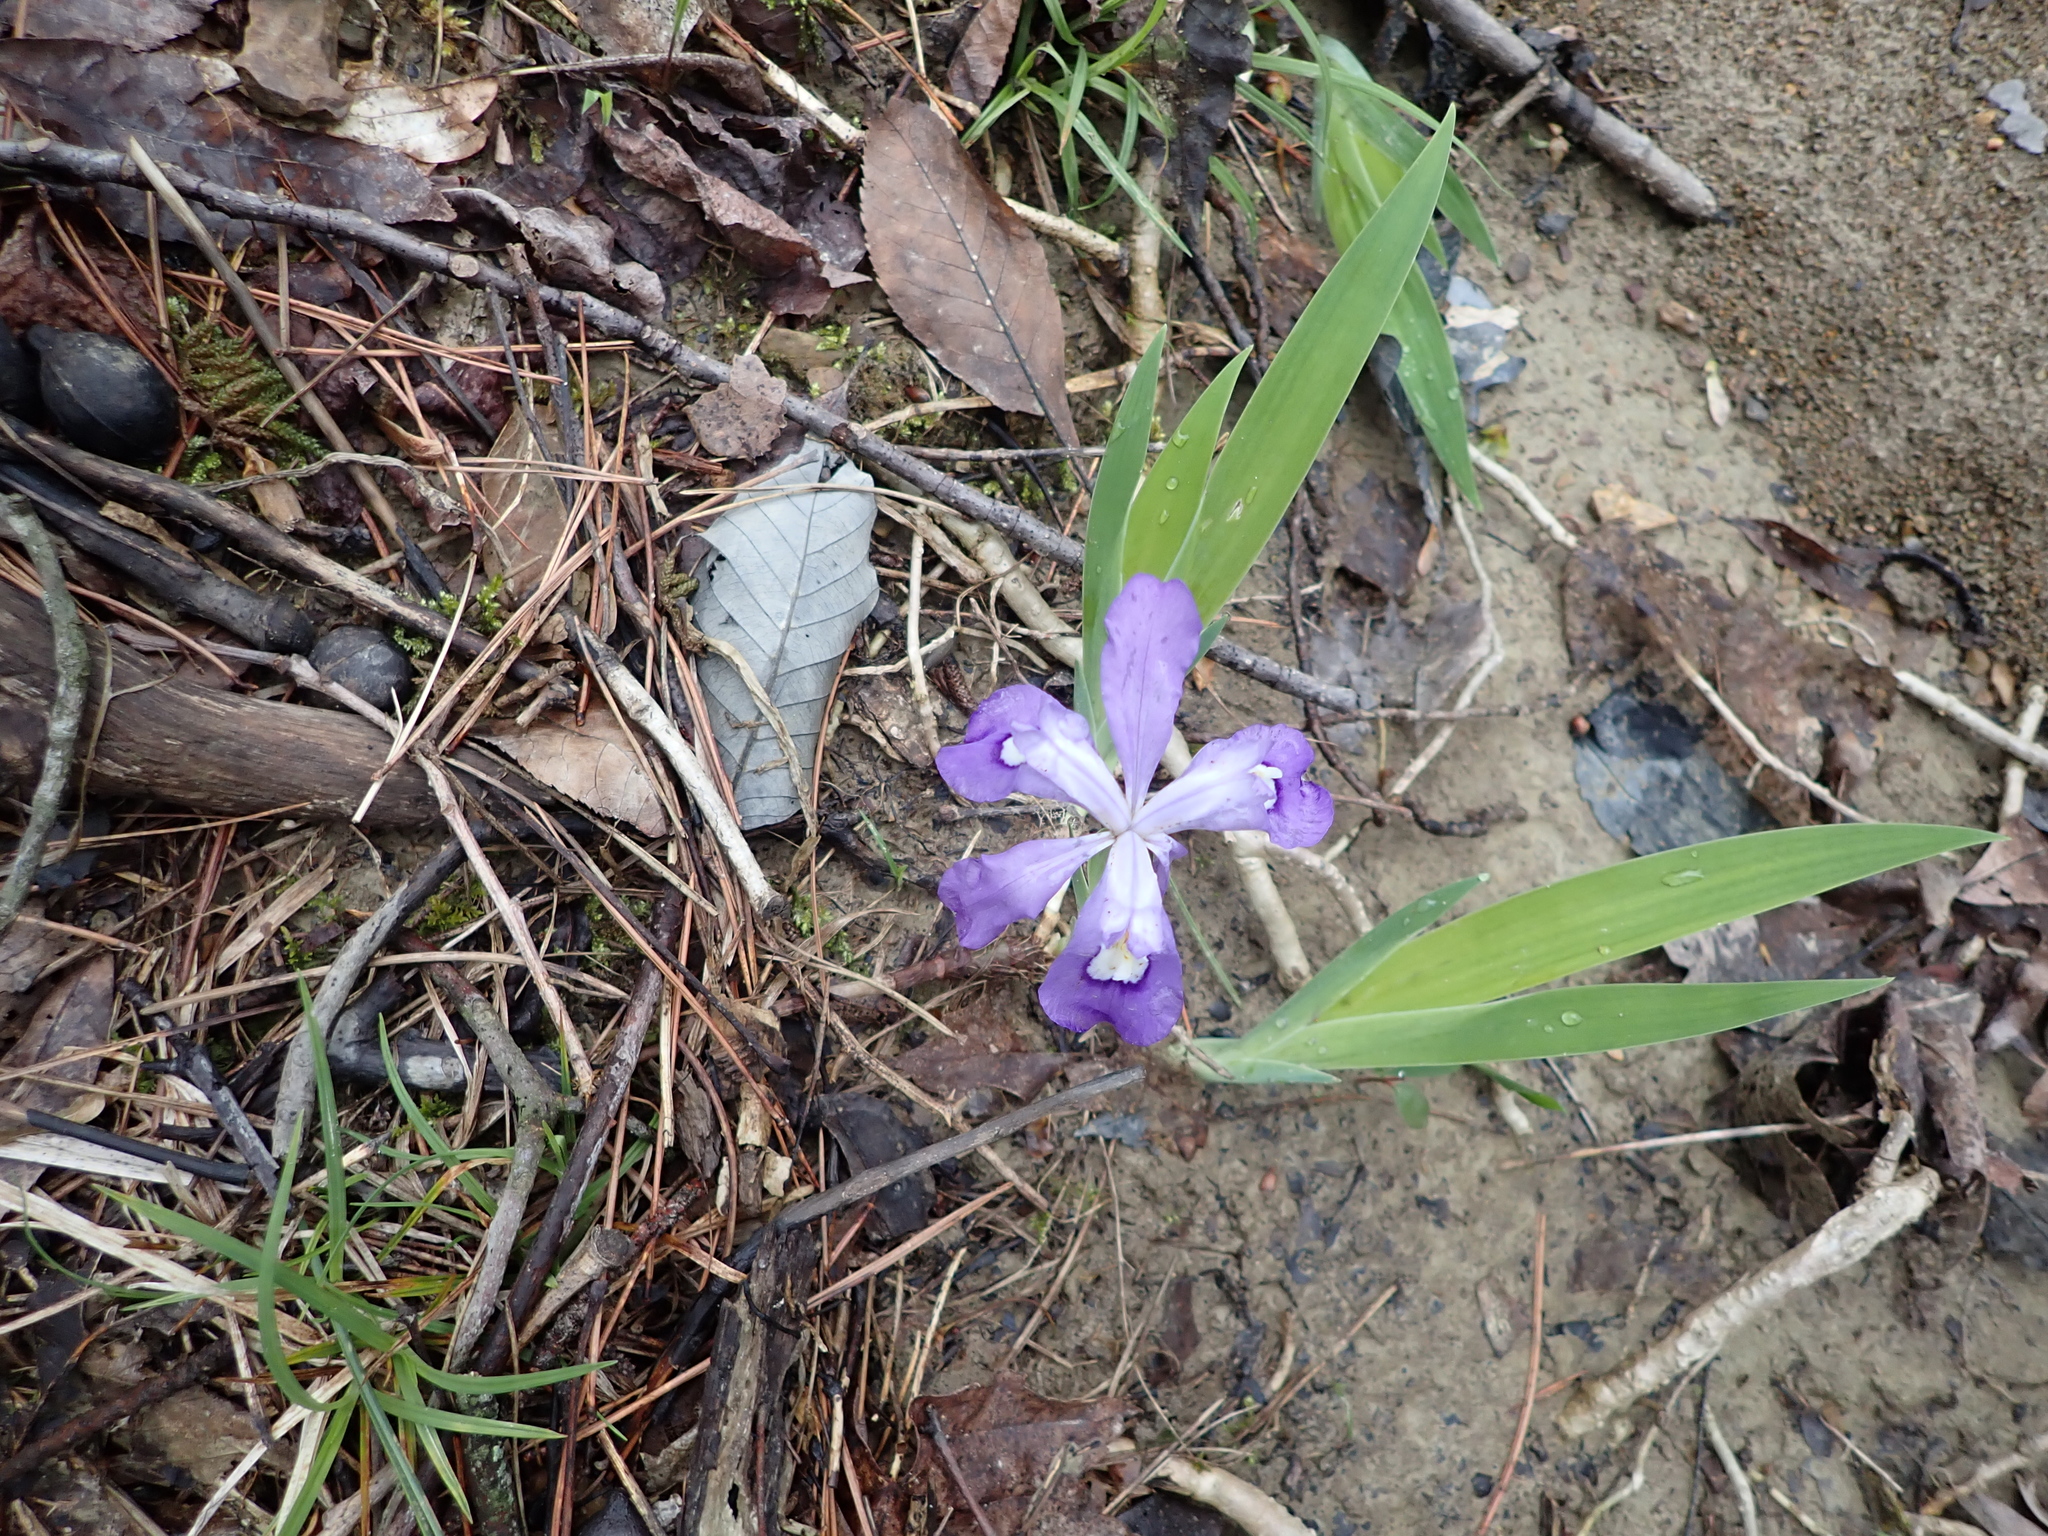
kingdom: Plantae
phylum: Tracheophyta
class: Liliopsida
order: Asparagales
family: Iridaceae
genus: Iris
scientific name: Iris cristata
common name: Crested iris
